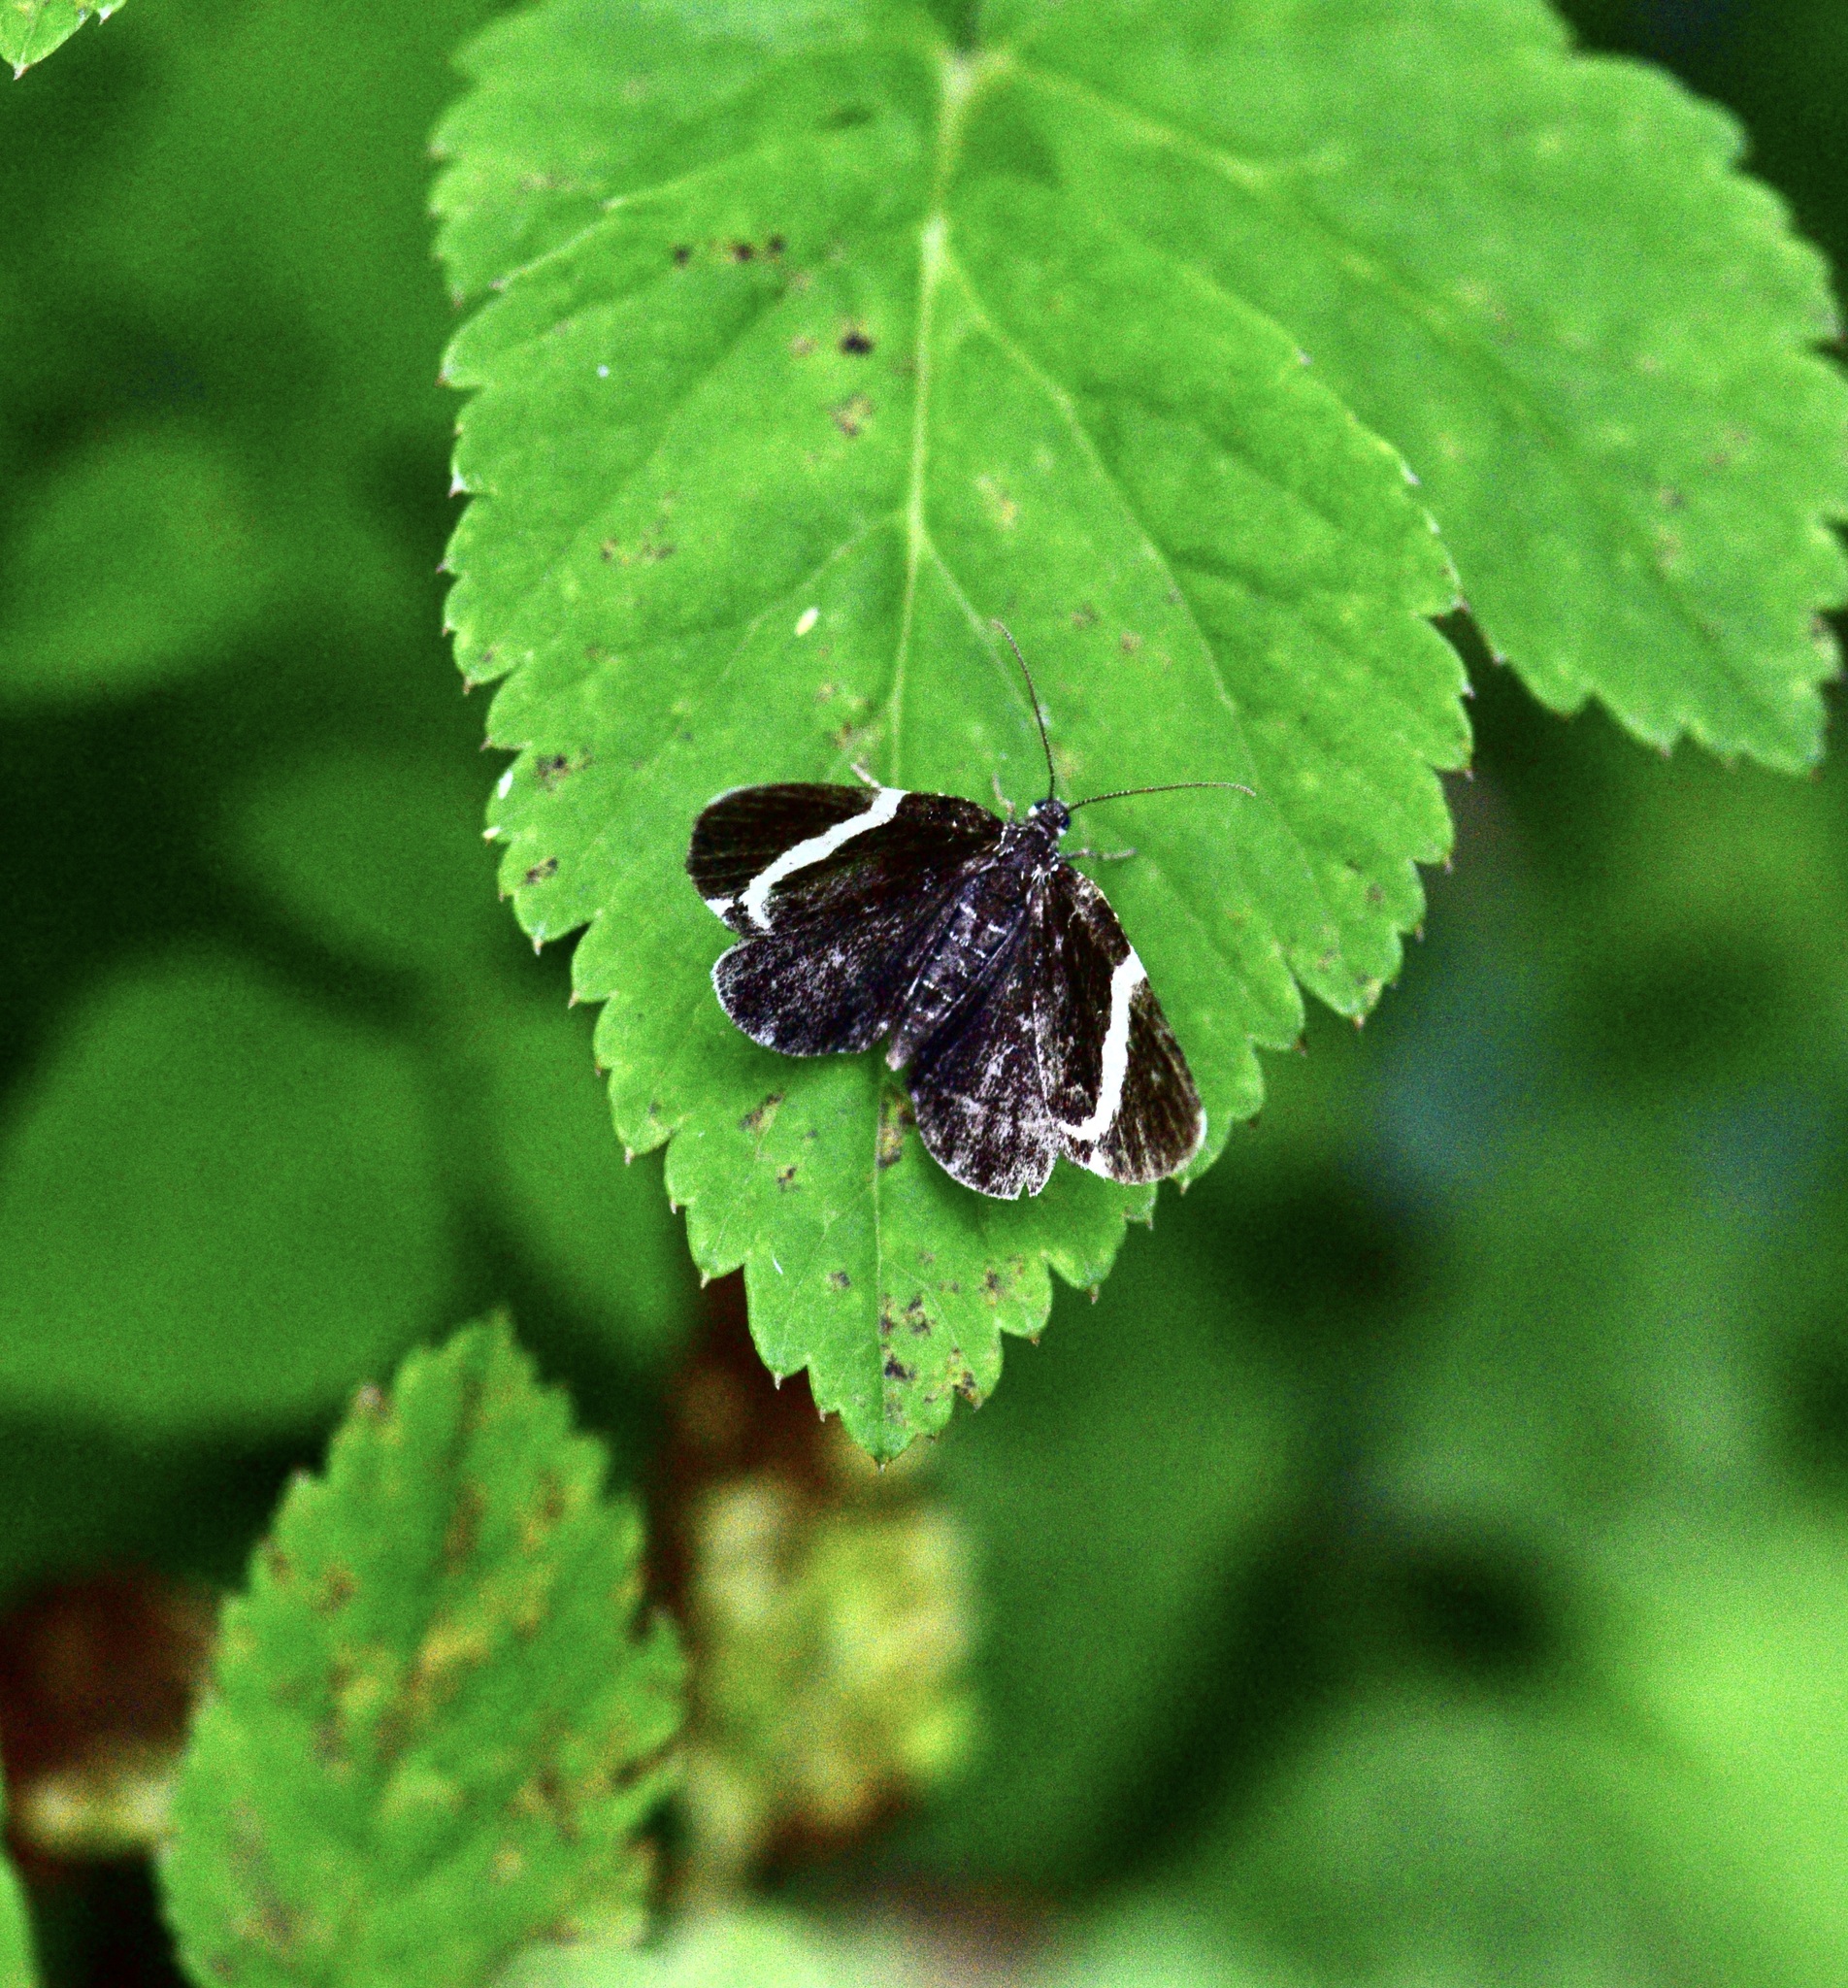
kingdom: Animalia
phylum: Arthropoda
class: Insecta
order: Lepidoptera
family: Geometridae
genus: Trichodezia
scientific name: Trichodezia albovittata
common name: White striped black
